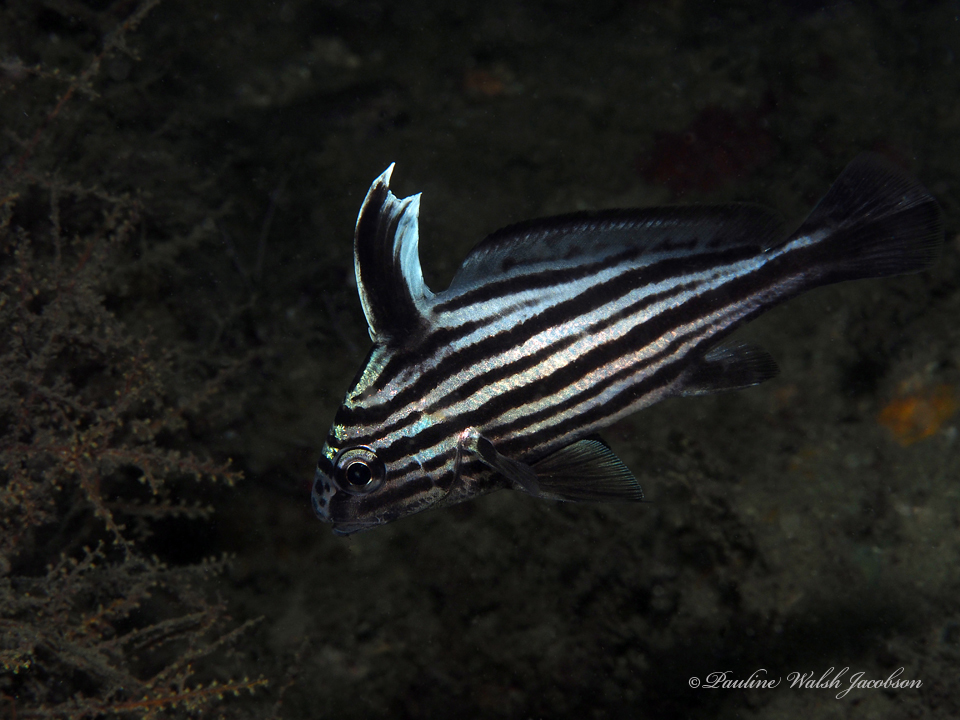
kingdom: Animalia
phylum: Chordata
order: Perciformes
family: Sciaenidae
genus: Pareques
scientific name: Pareques acuminatus
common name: High-hat
